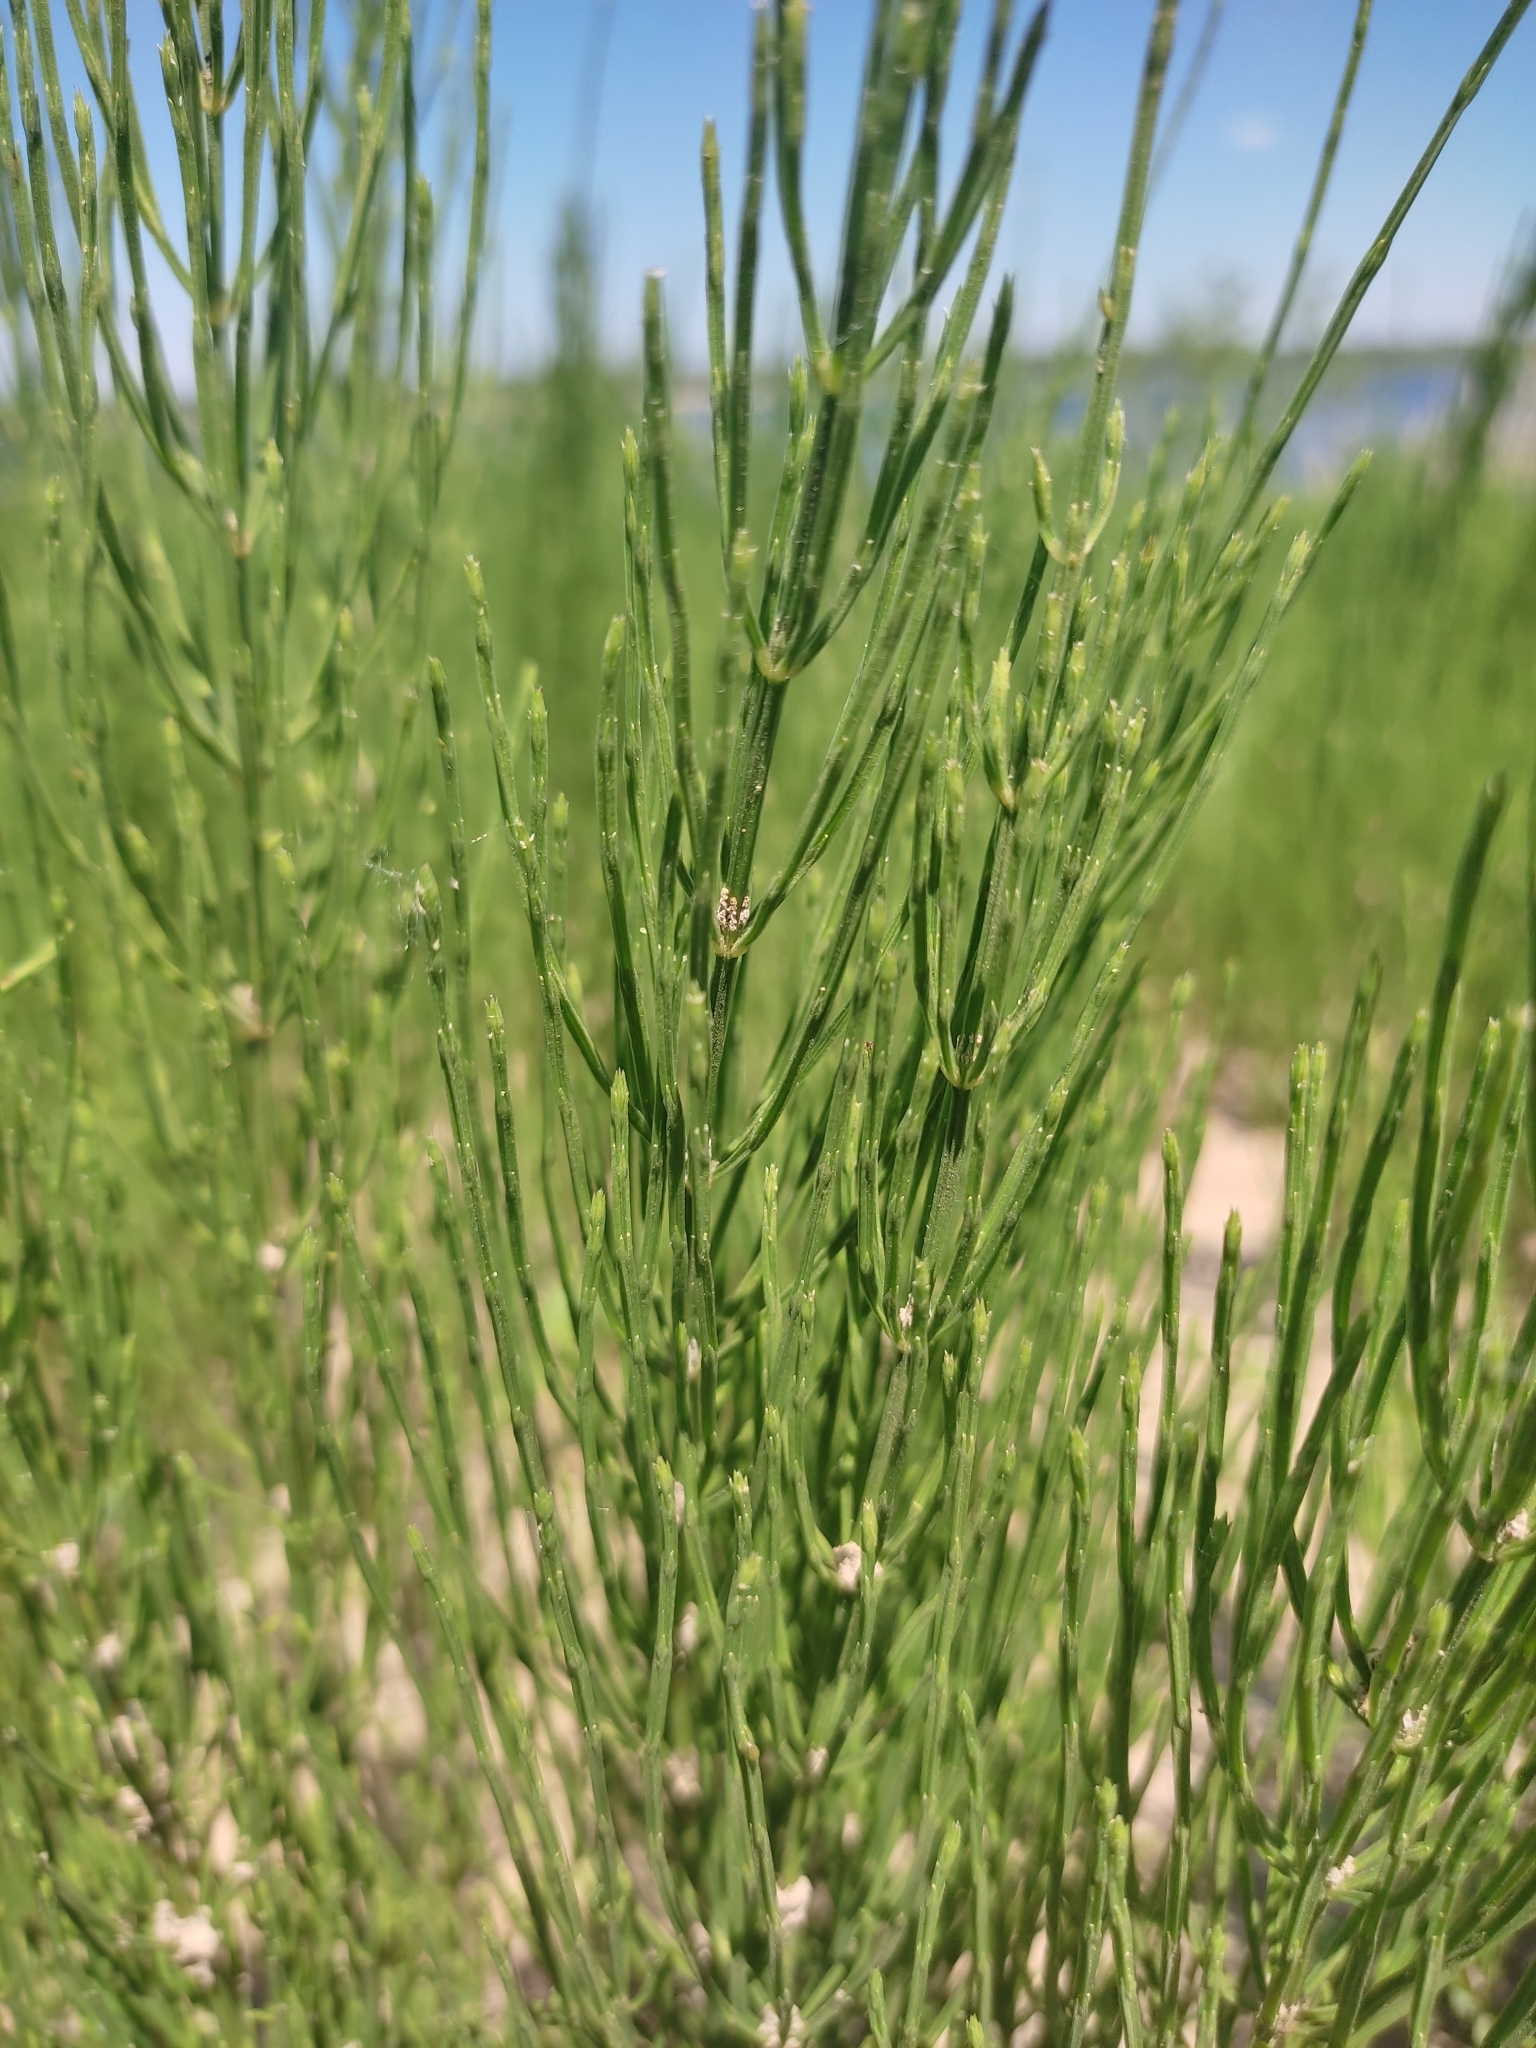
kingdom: Plantae
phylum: Tracheophyta
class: Polypodiopsida
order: Equisetales
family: Equisetaceae
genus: Equisetum
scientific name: Equisetum arvense
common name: Field horsetail
